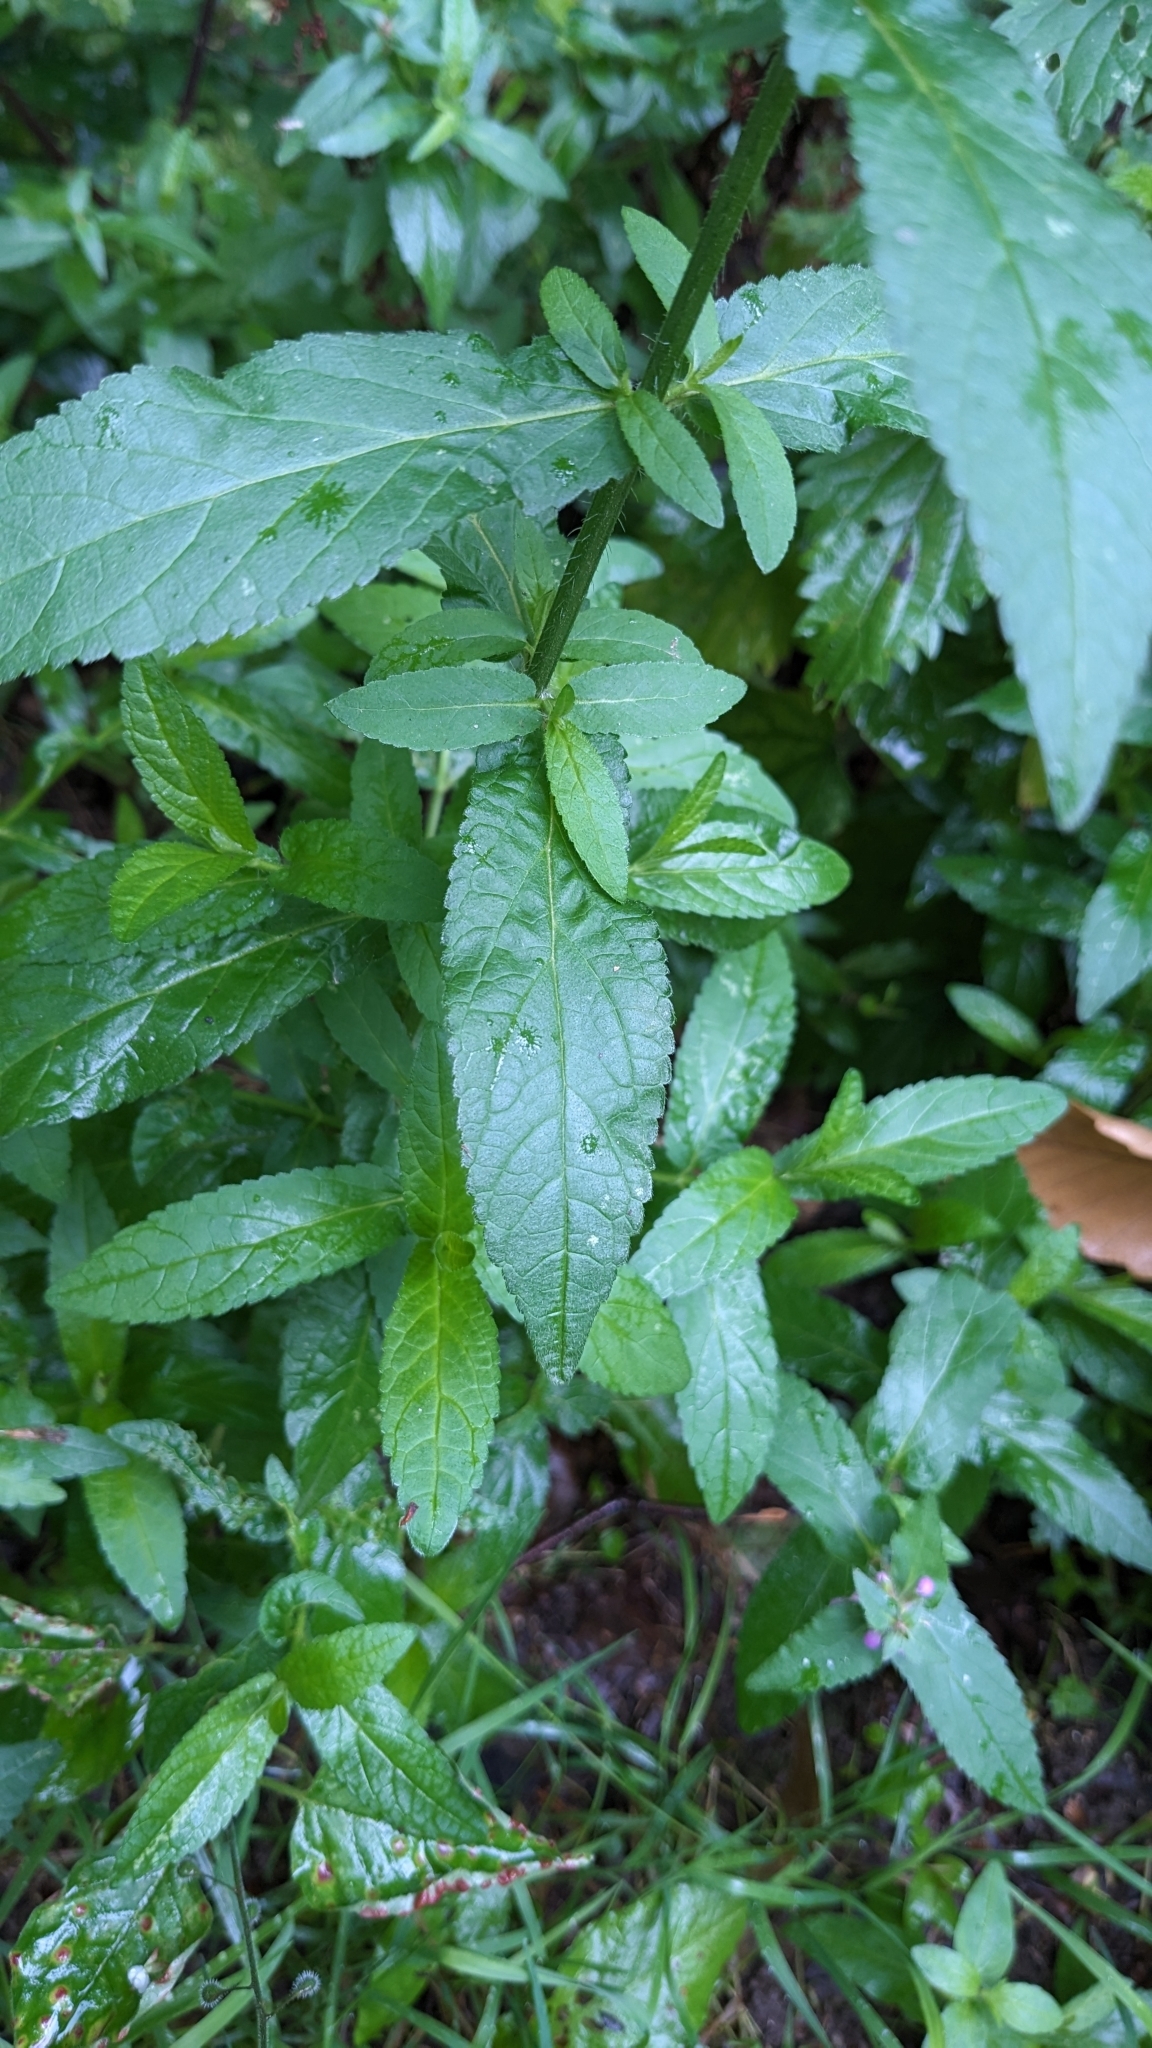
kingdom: Plantae
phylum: Tracheophyta
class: Magnoliopsida
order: Lamiales
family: Lamiaceae
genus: Stachys
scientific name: Stachys palustris
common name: Marsh woundwort
